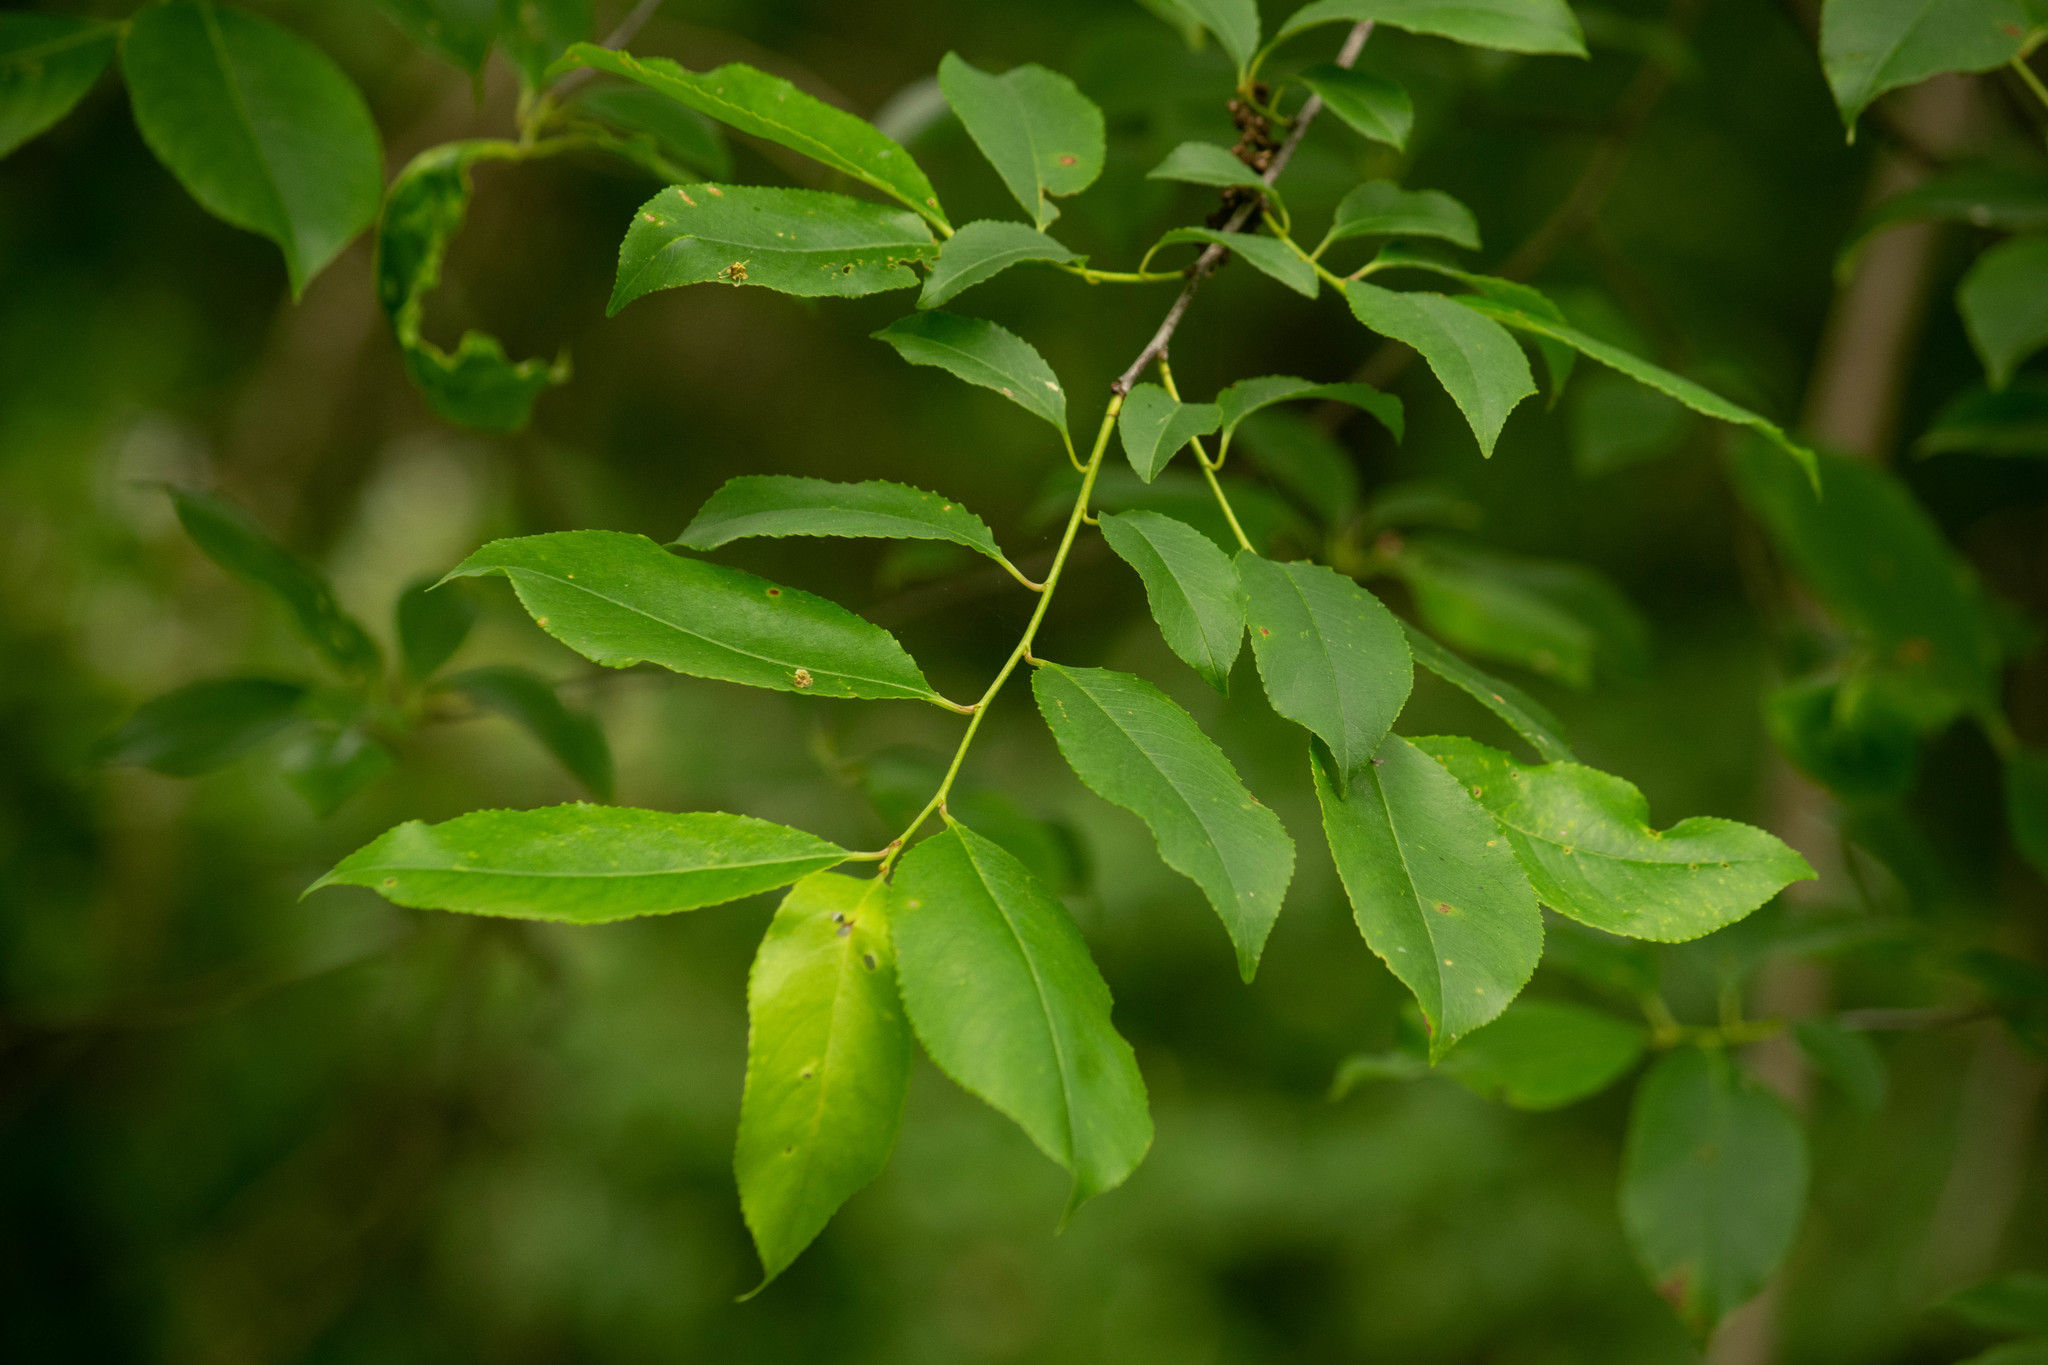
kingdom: Plantae
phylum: Tracheophyta
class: Magnoliopsida
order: Rosales
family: Rosaceae
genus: Prunus
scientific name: Prunus serotina
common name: Black cherry
